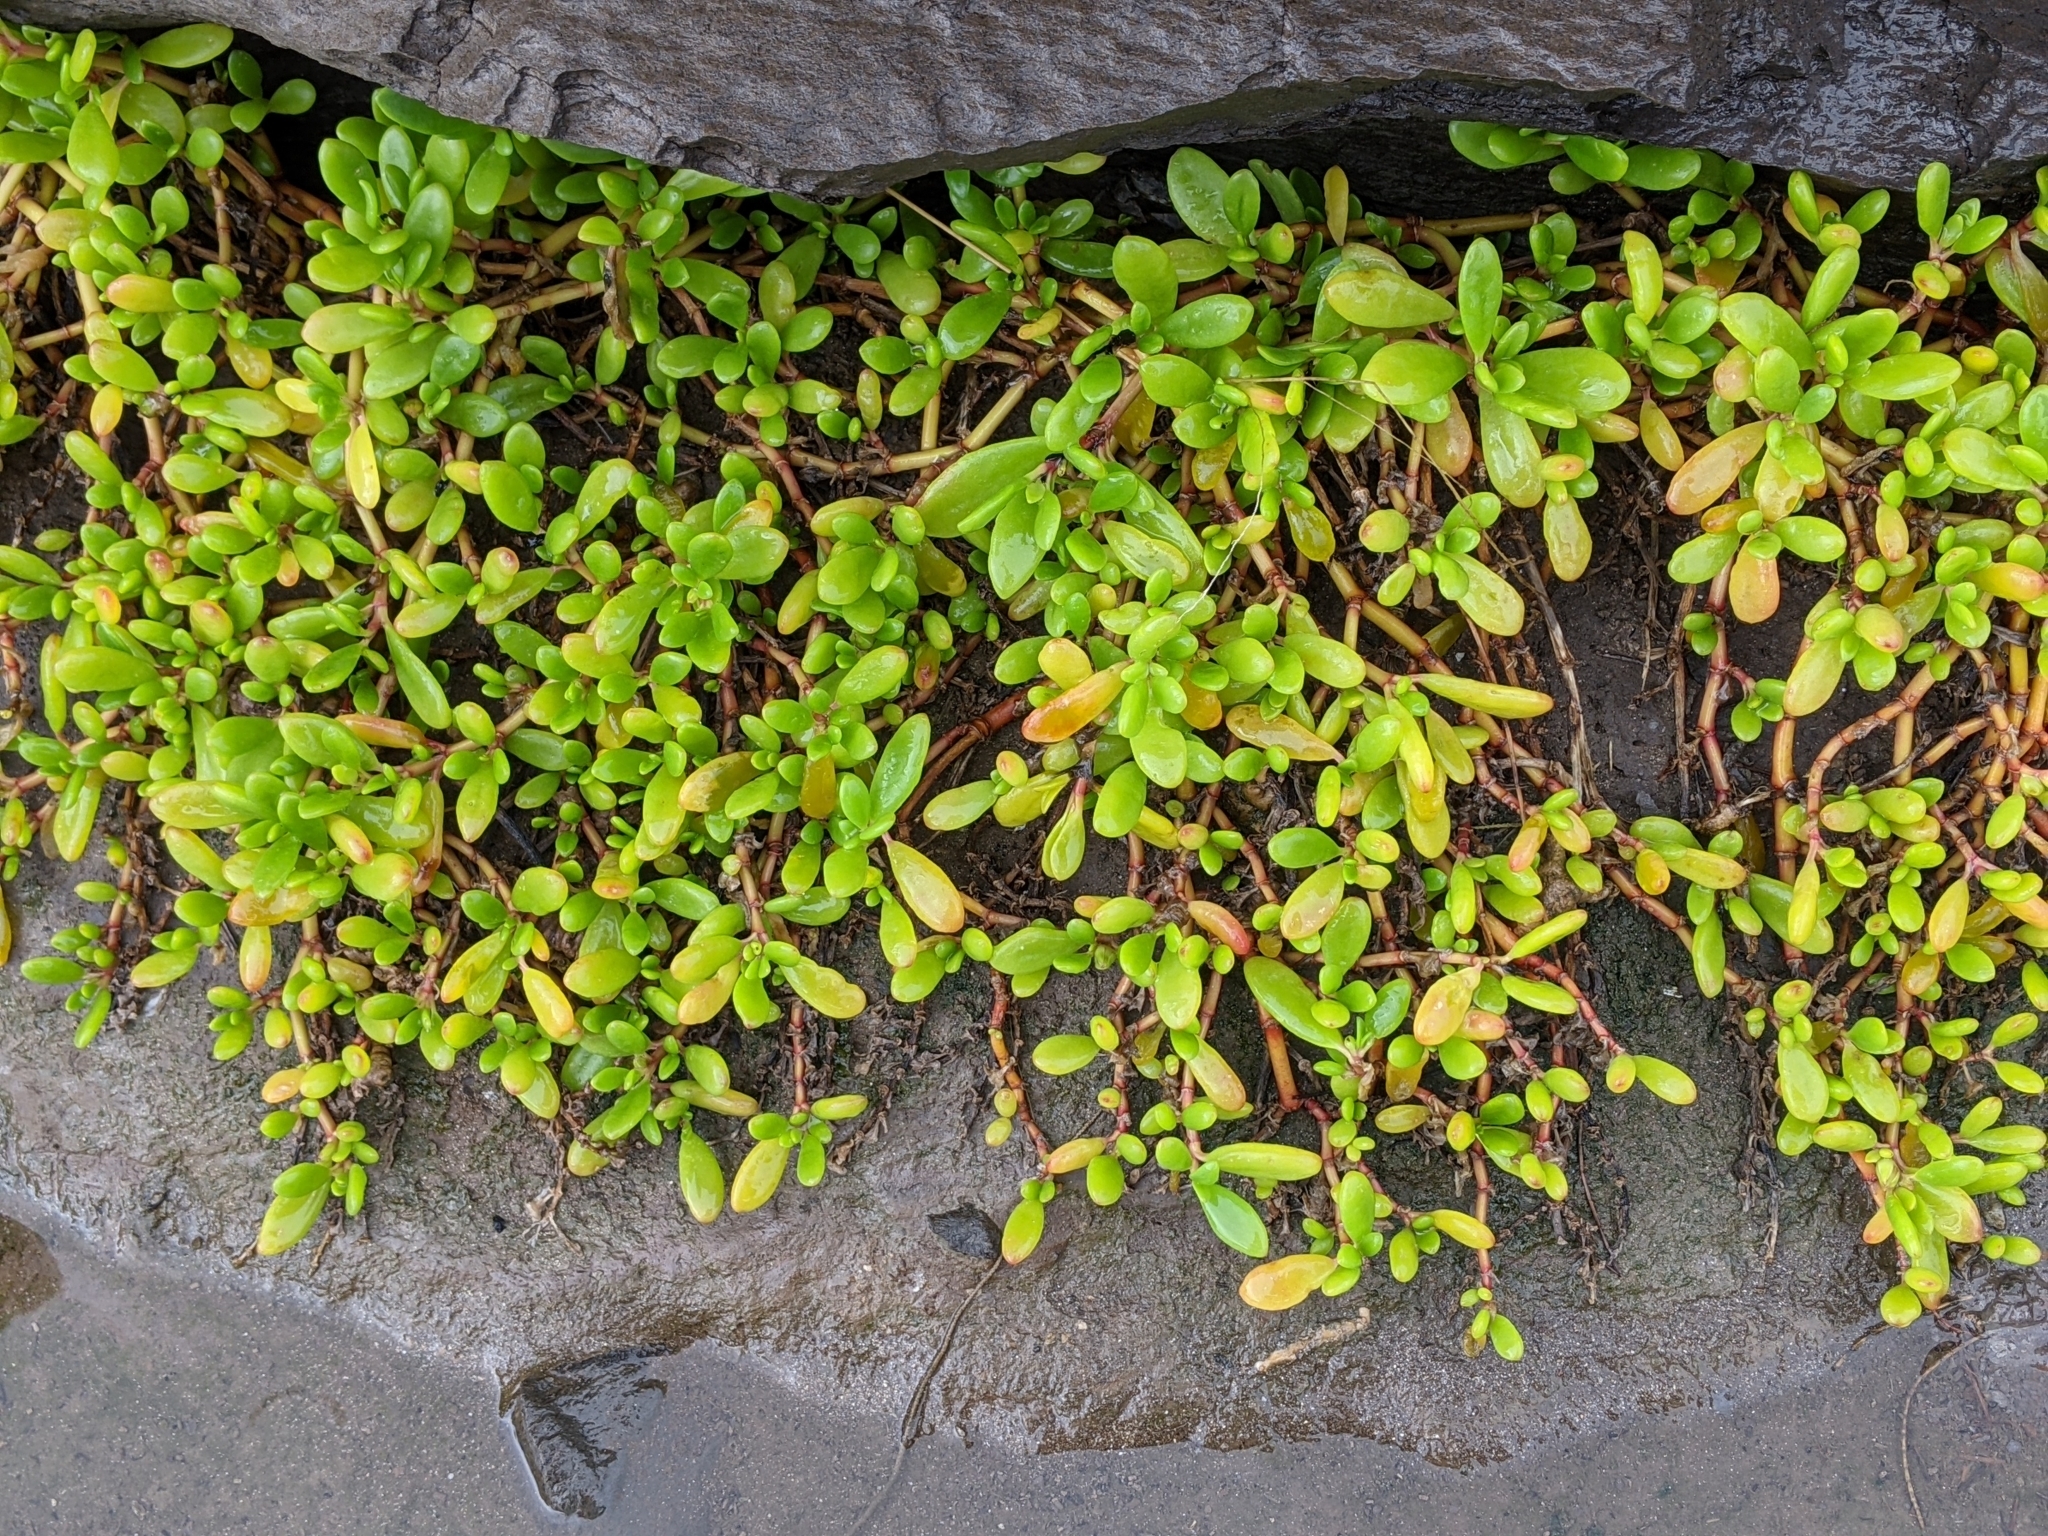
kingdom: Plantae
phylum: Tracheophyta
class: Magnoliopsida
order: Caryophyllales
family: Aizoaceae
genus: Sesuvium
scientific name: Sesuvium portulacastrum
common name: Sea-purslane
